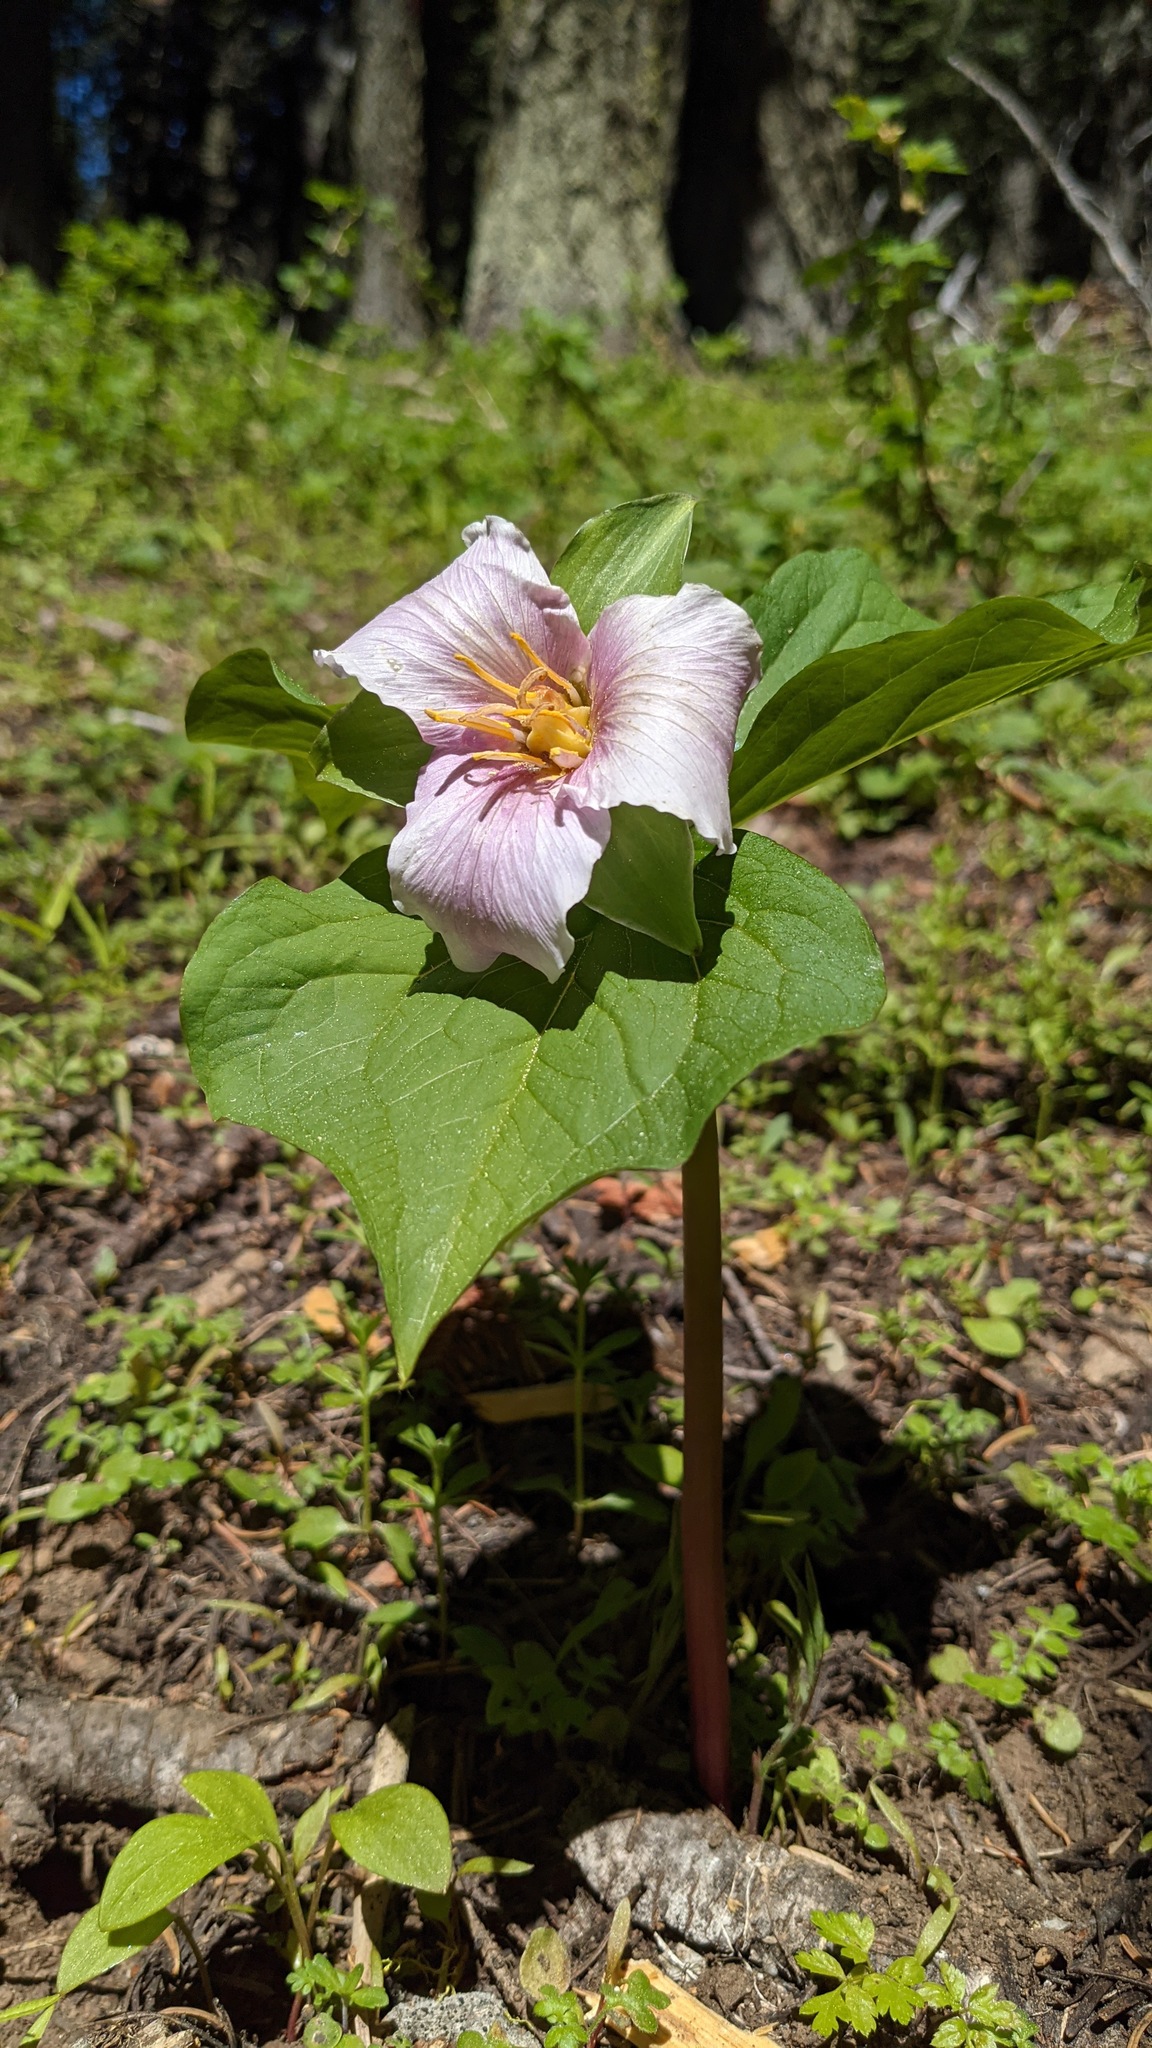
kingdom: Plantae
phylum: Tracheophyta
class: Liliopsida
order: Liliales
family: Melanthiaceae
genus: Trillium
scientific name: Trillium ovatum
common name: Pacific trillium
